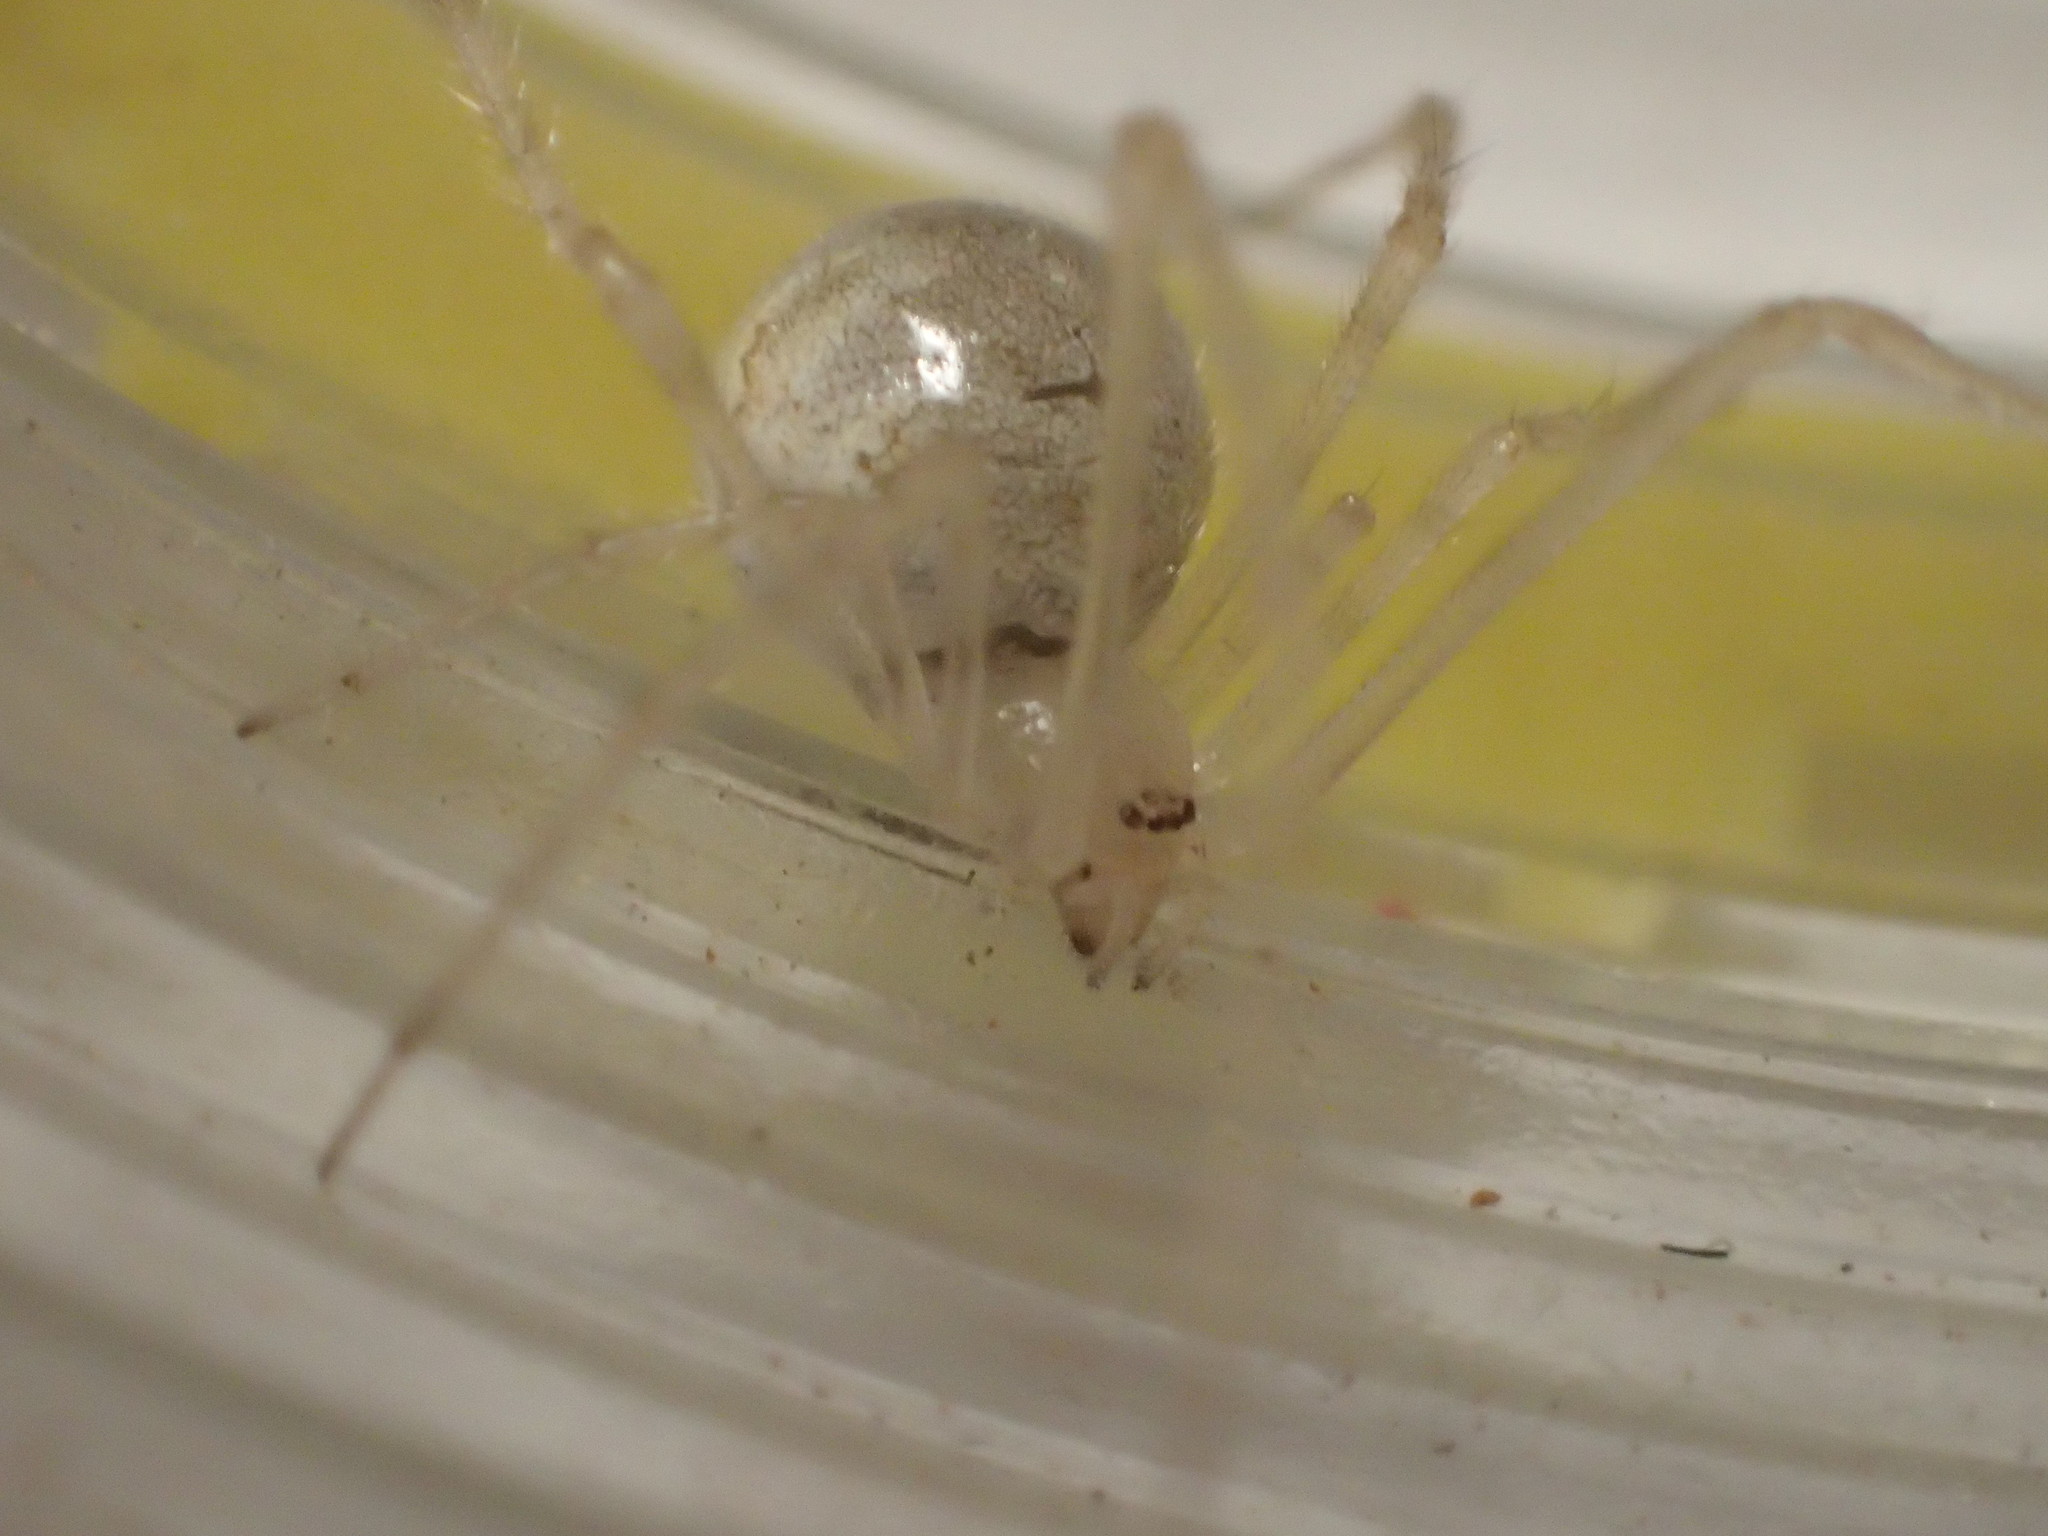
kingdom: Animalia
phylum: Arthropoda
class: Arachnida
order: Araneae
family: Theridiidae
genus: Cryptachaea
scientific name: Cryptachaea gigantipes
